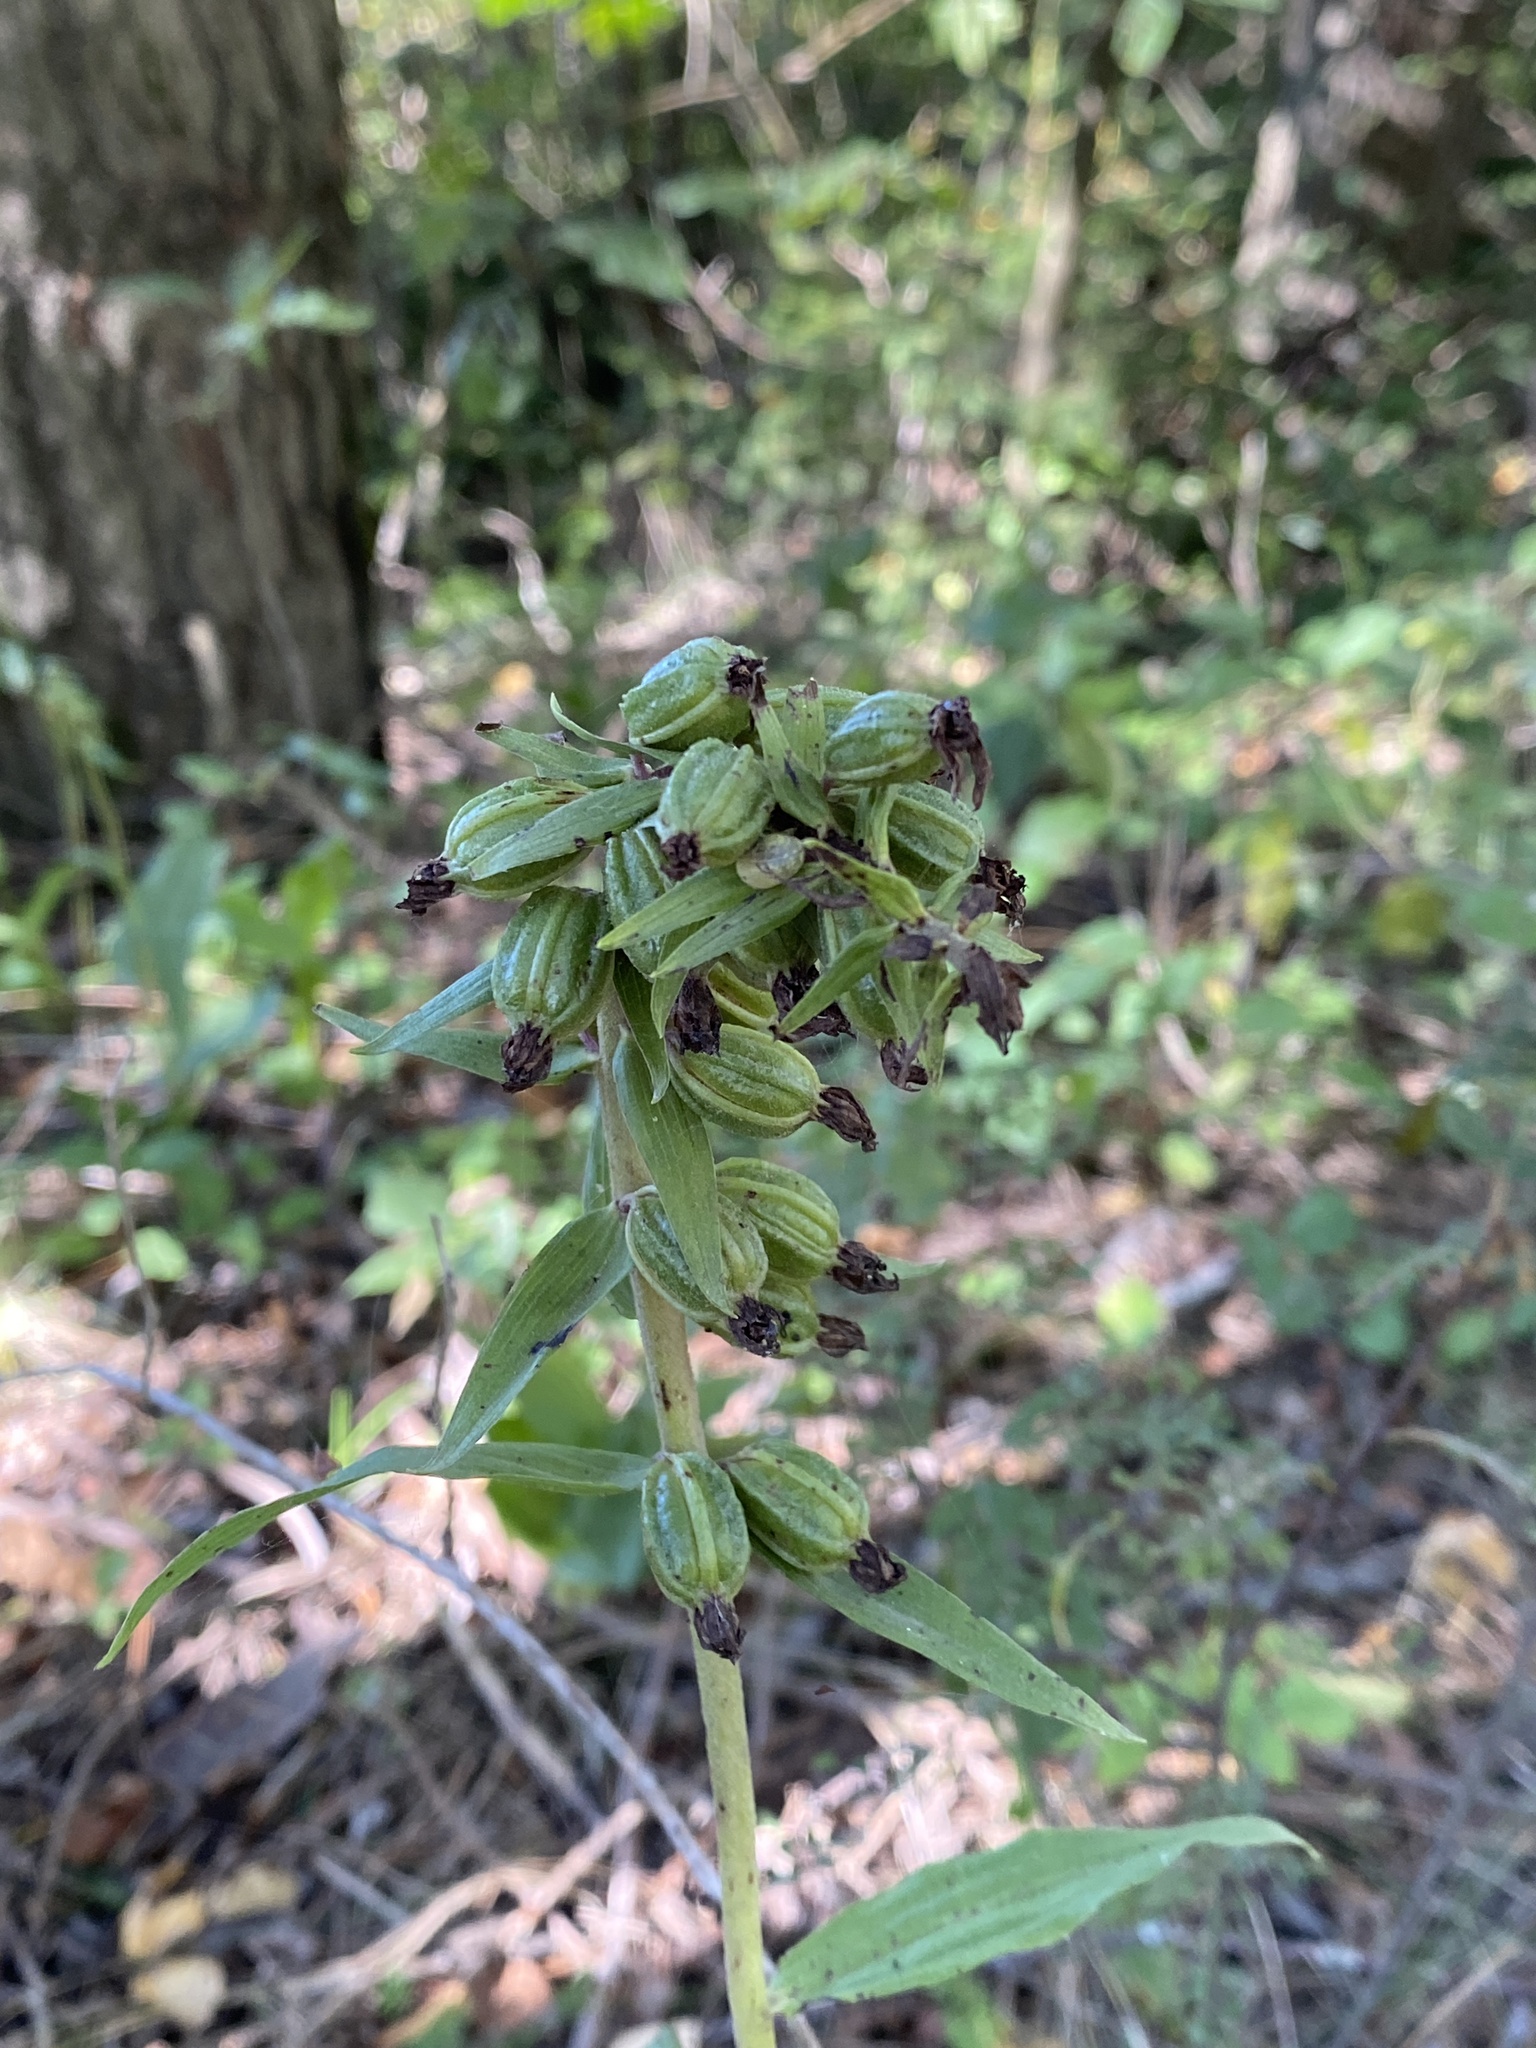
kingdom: Plantae
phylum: Tracheophyta
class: Liliopsida
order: Asparagales
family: Orchidaceae
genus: Epipactis
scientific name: Epipactis helleborine
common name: Broad-leaved helleborine
